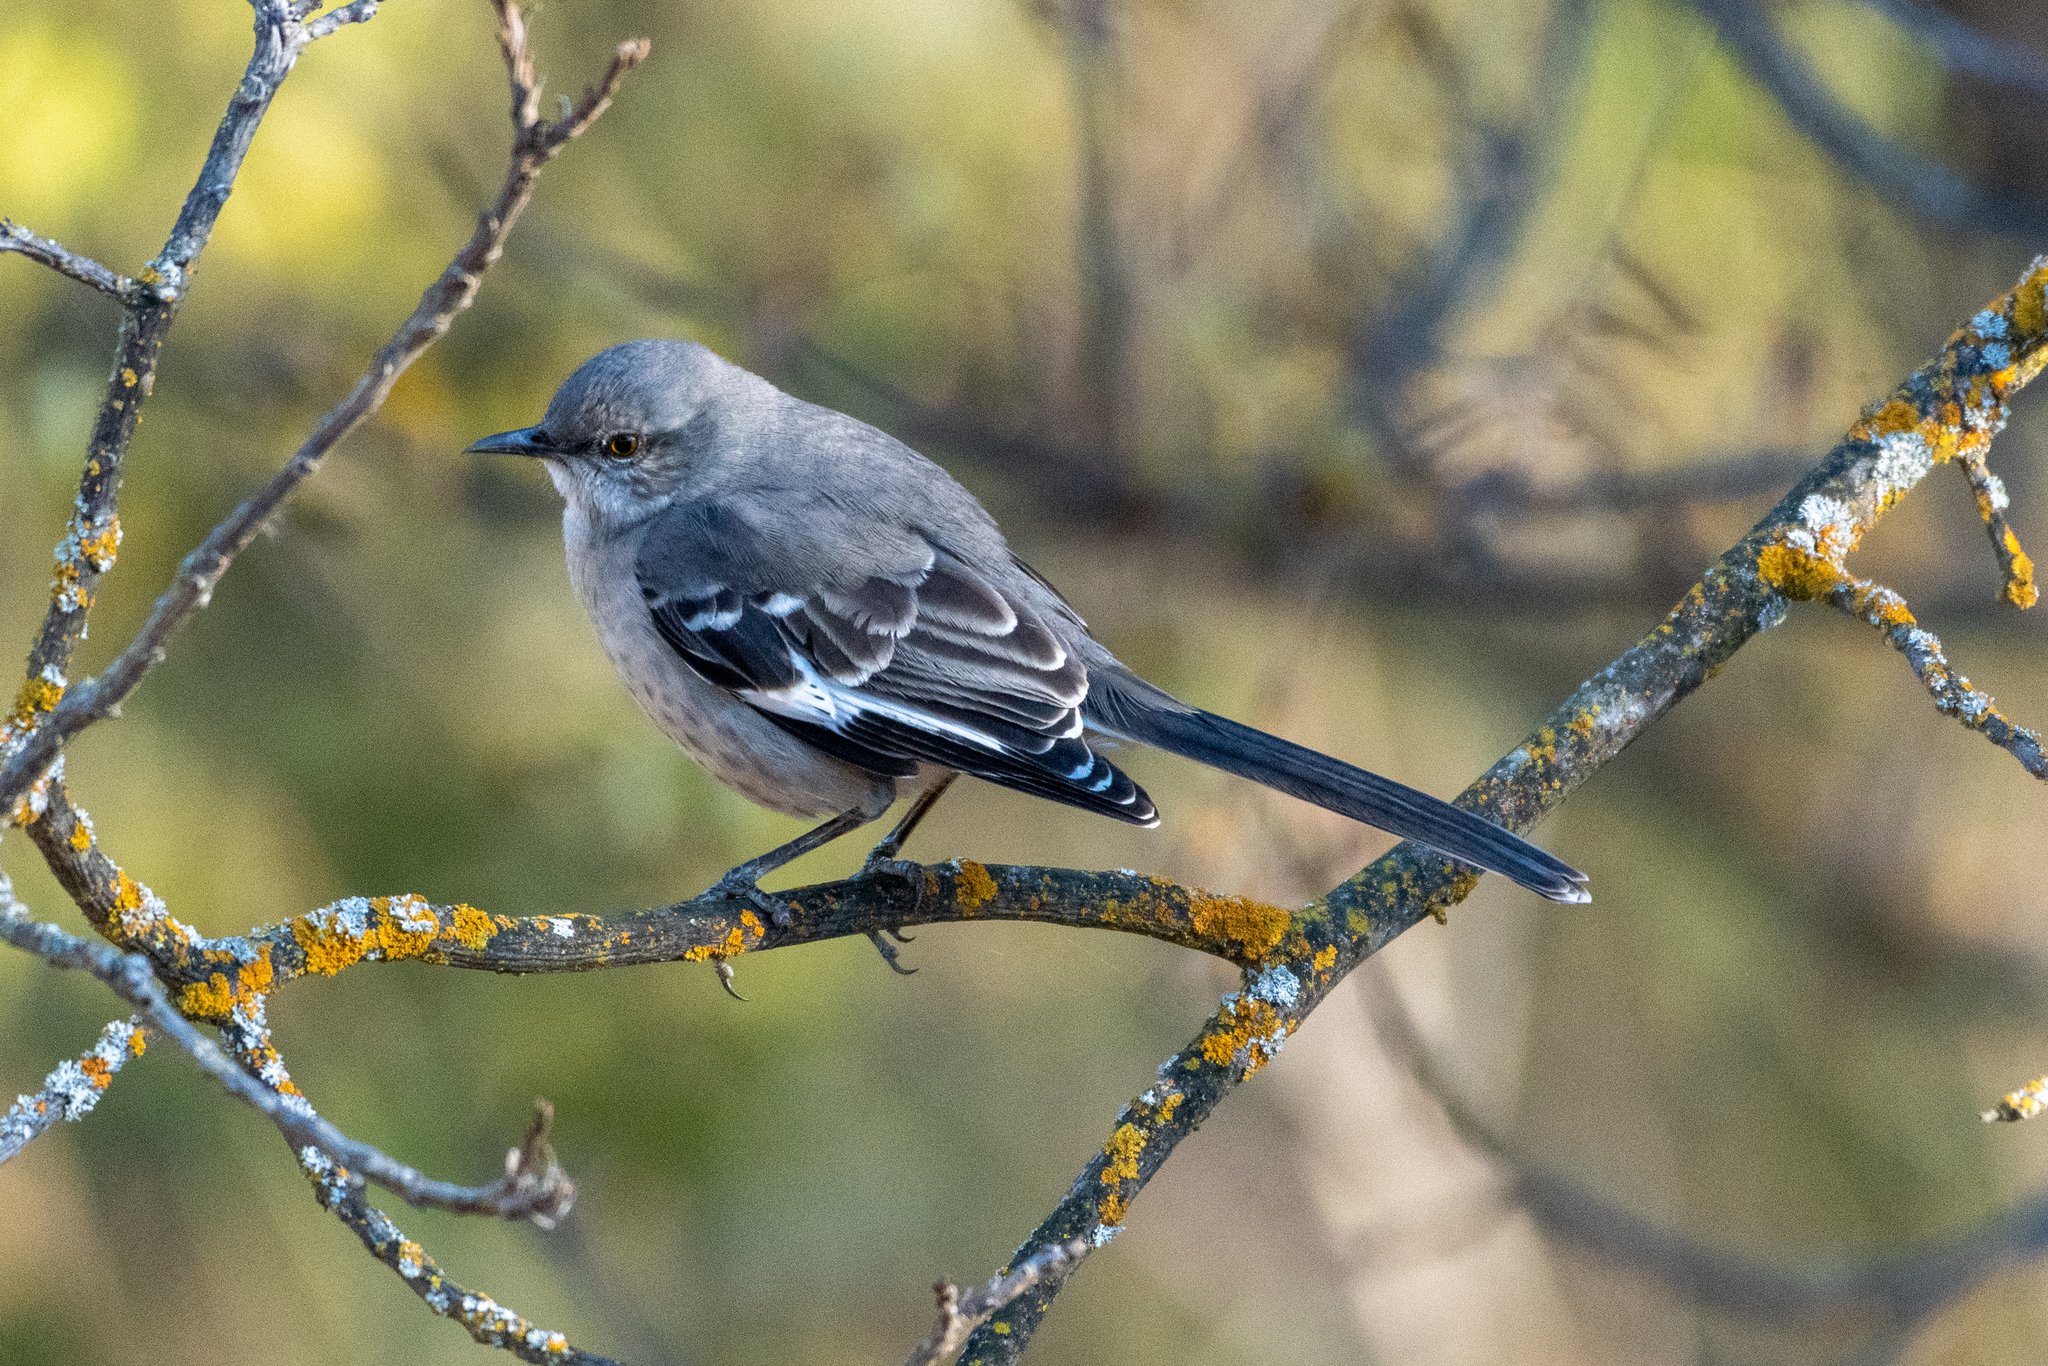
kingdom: Animalia
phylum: Chordata
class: Aves
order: Passeriformes
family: Mimidae
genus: Mimus
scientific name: Mimus polyglottos
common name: Northern mockingbird
